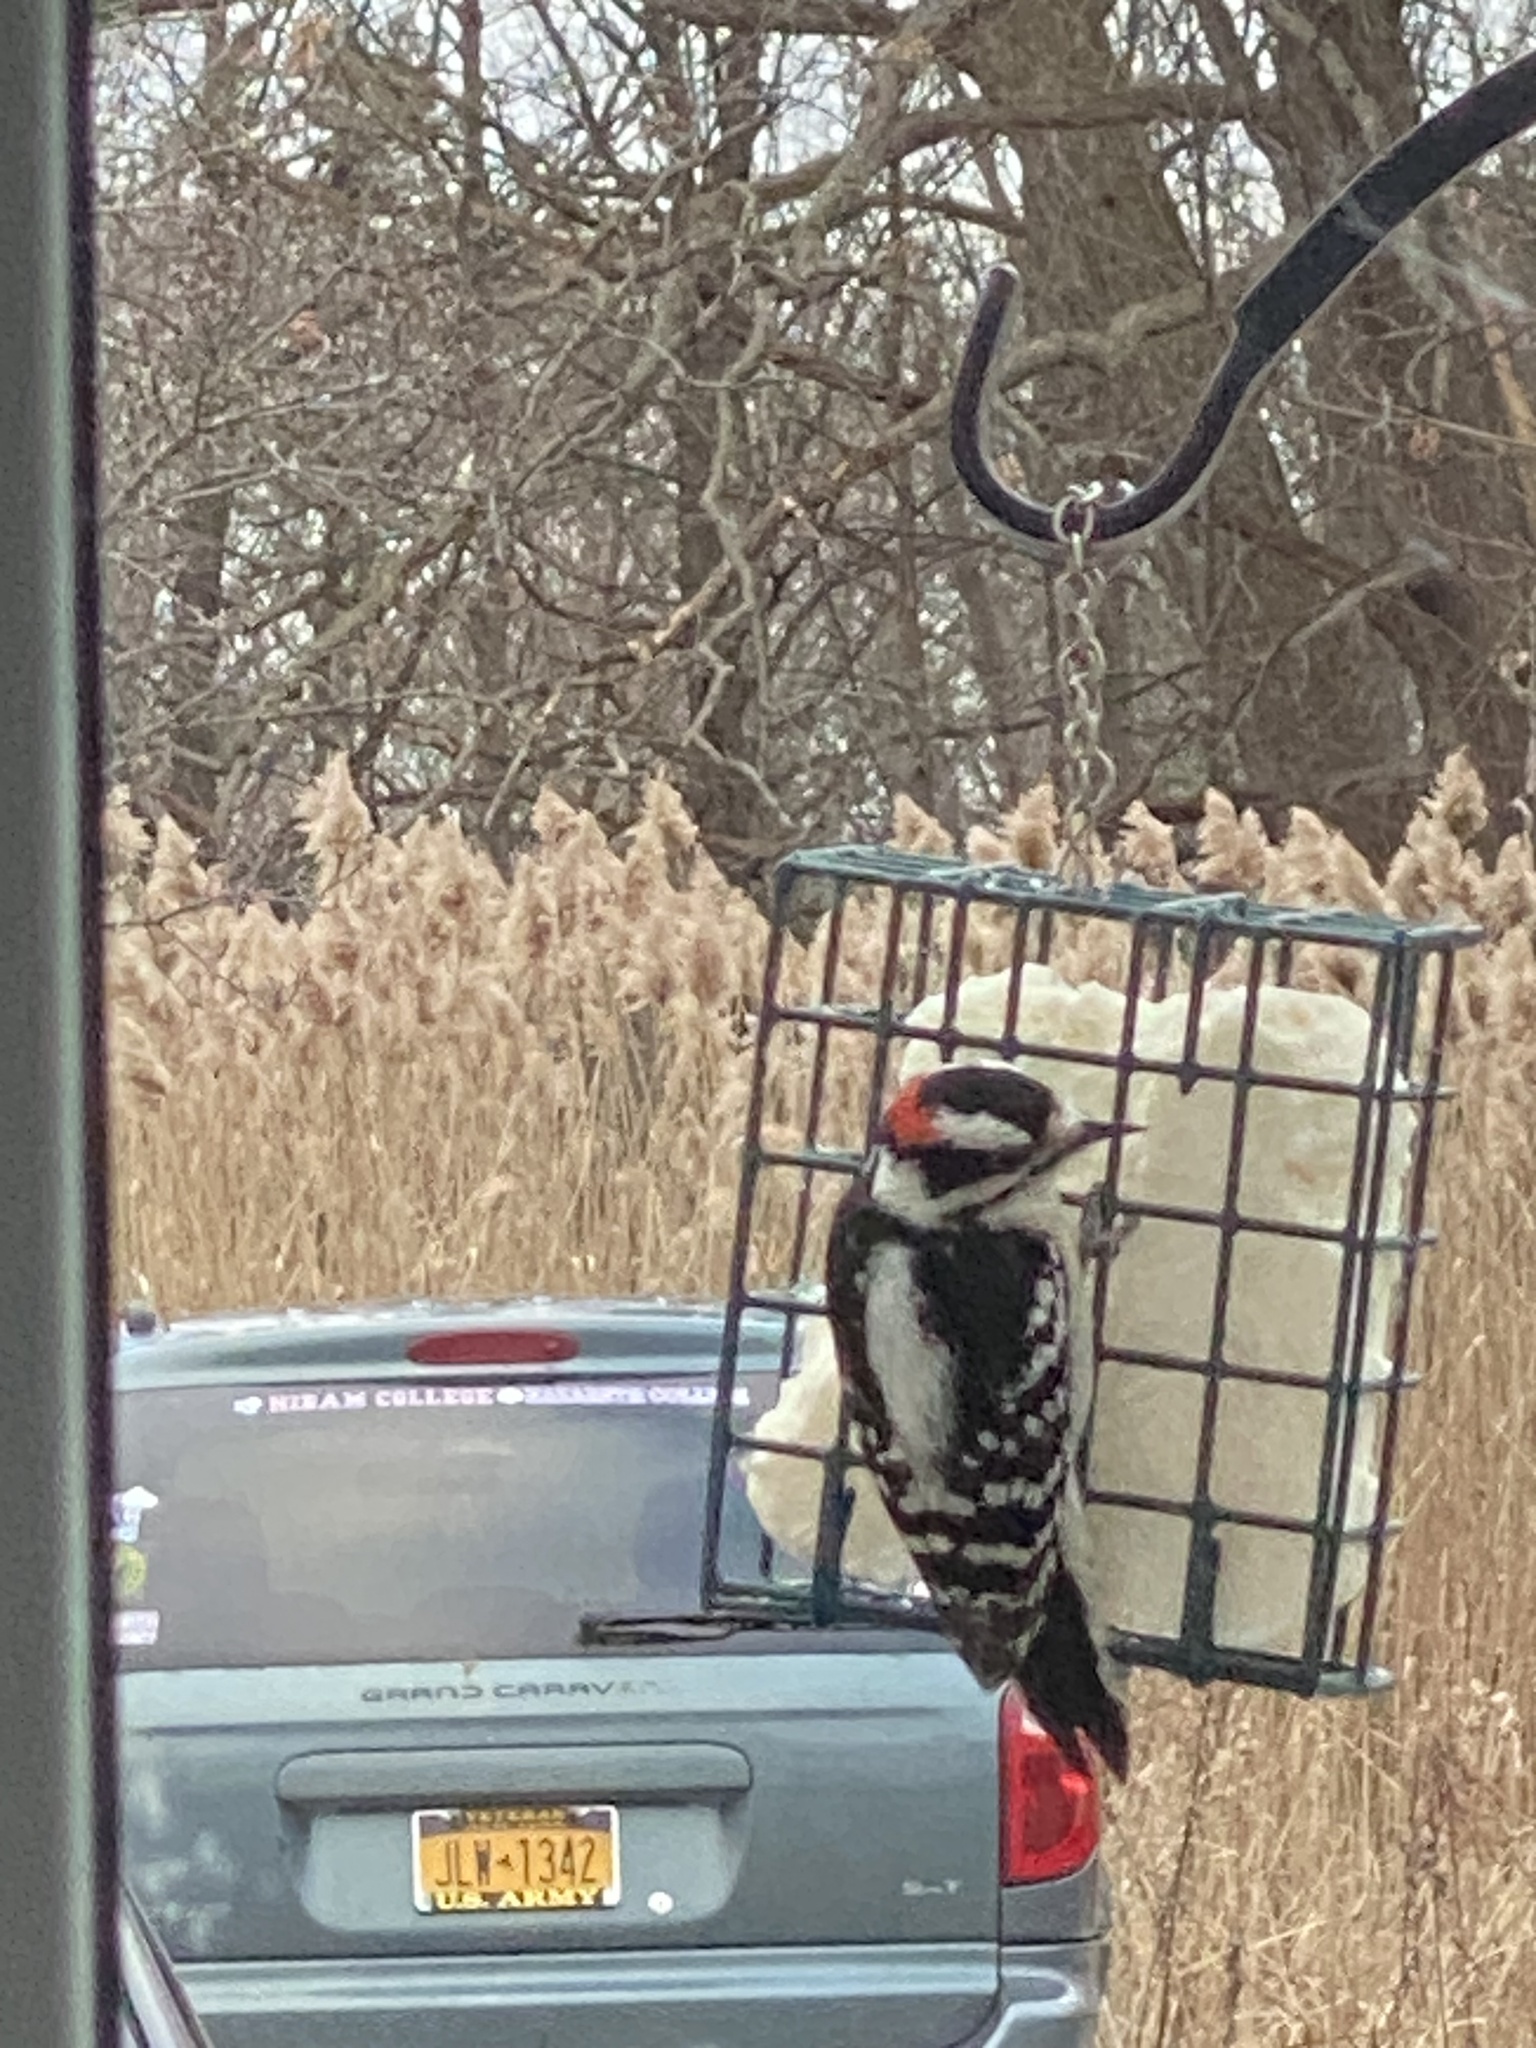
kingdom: Animalia
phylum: Chordata
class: Aves
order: Piciformes
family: Picidae
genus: Dryobates
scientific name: Dryobates pubescens
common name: Downy woodpecker
